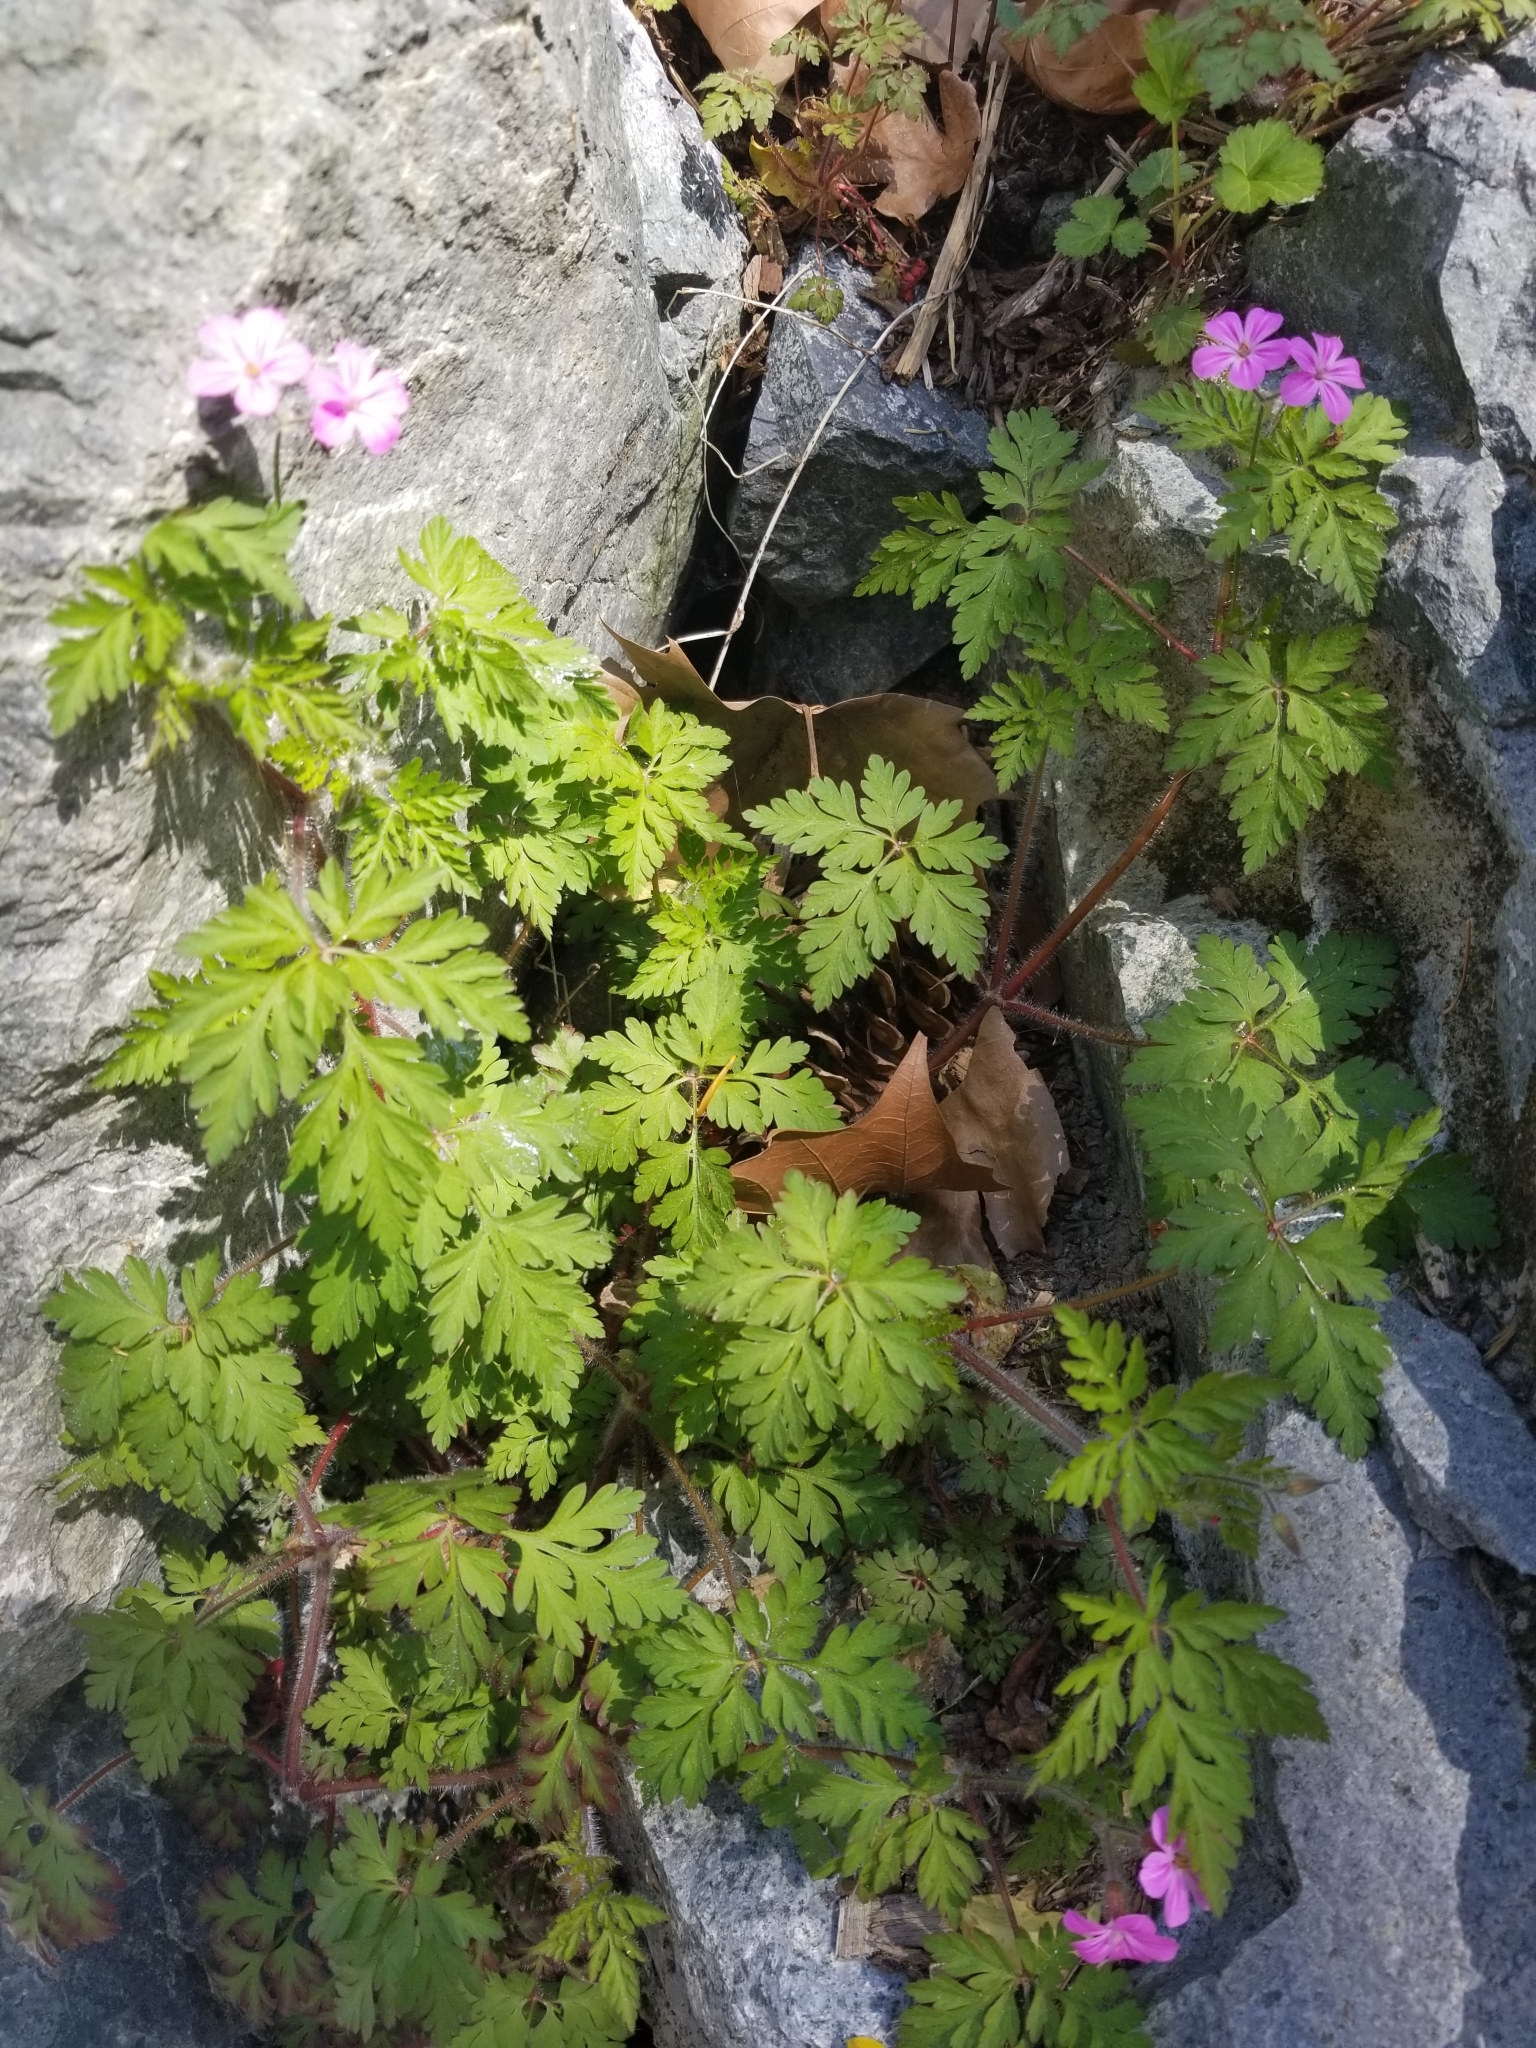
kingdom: Plantae
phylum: Tracheophyta
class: Magnoliopsida
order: Geraniales
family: Geraniaceae
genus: Geranium
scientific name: Geranium robertianum
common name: Herb-robert
